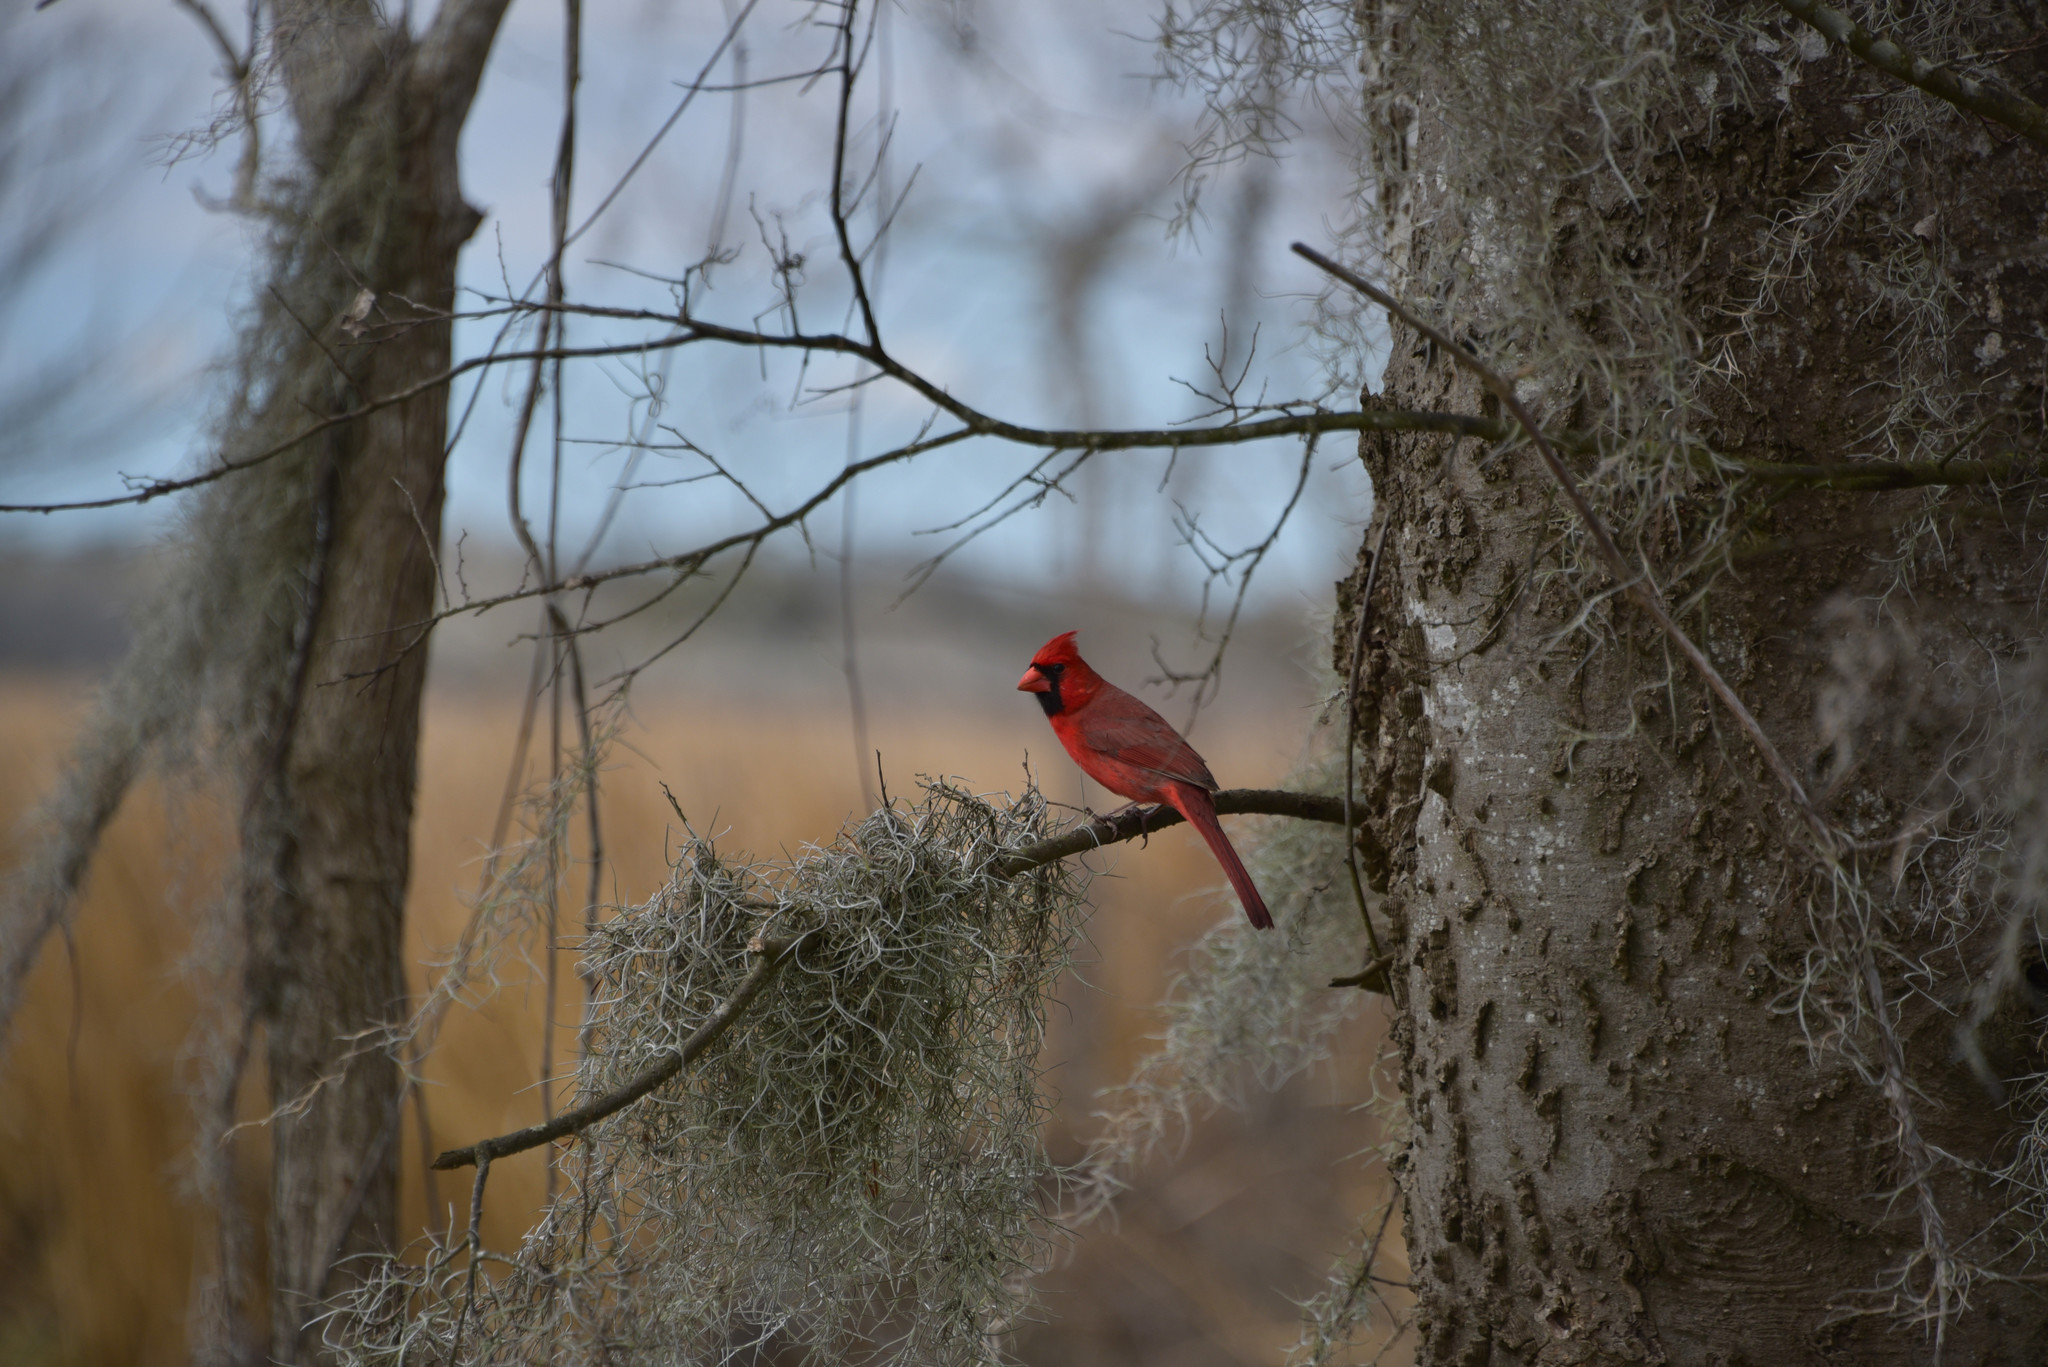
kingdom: Animalia
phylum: Chordata
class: Aves
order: Passeriformes
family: Cardinalidae
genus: Cardinalis
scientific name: Cardinalis cardinalis
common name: Northern cardinal
